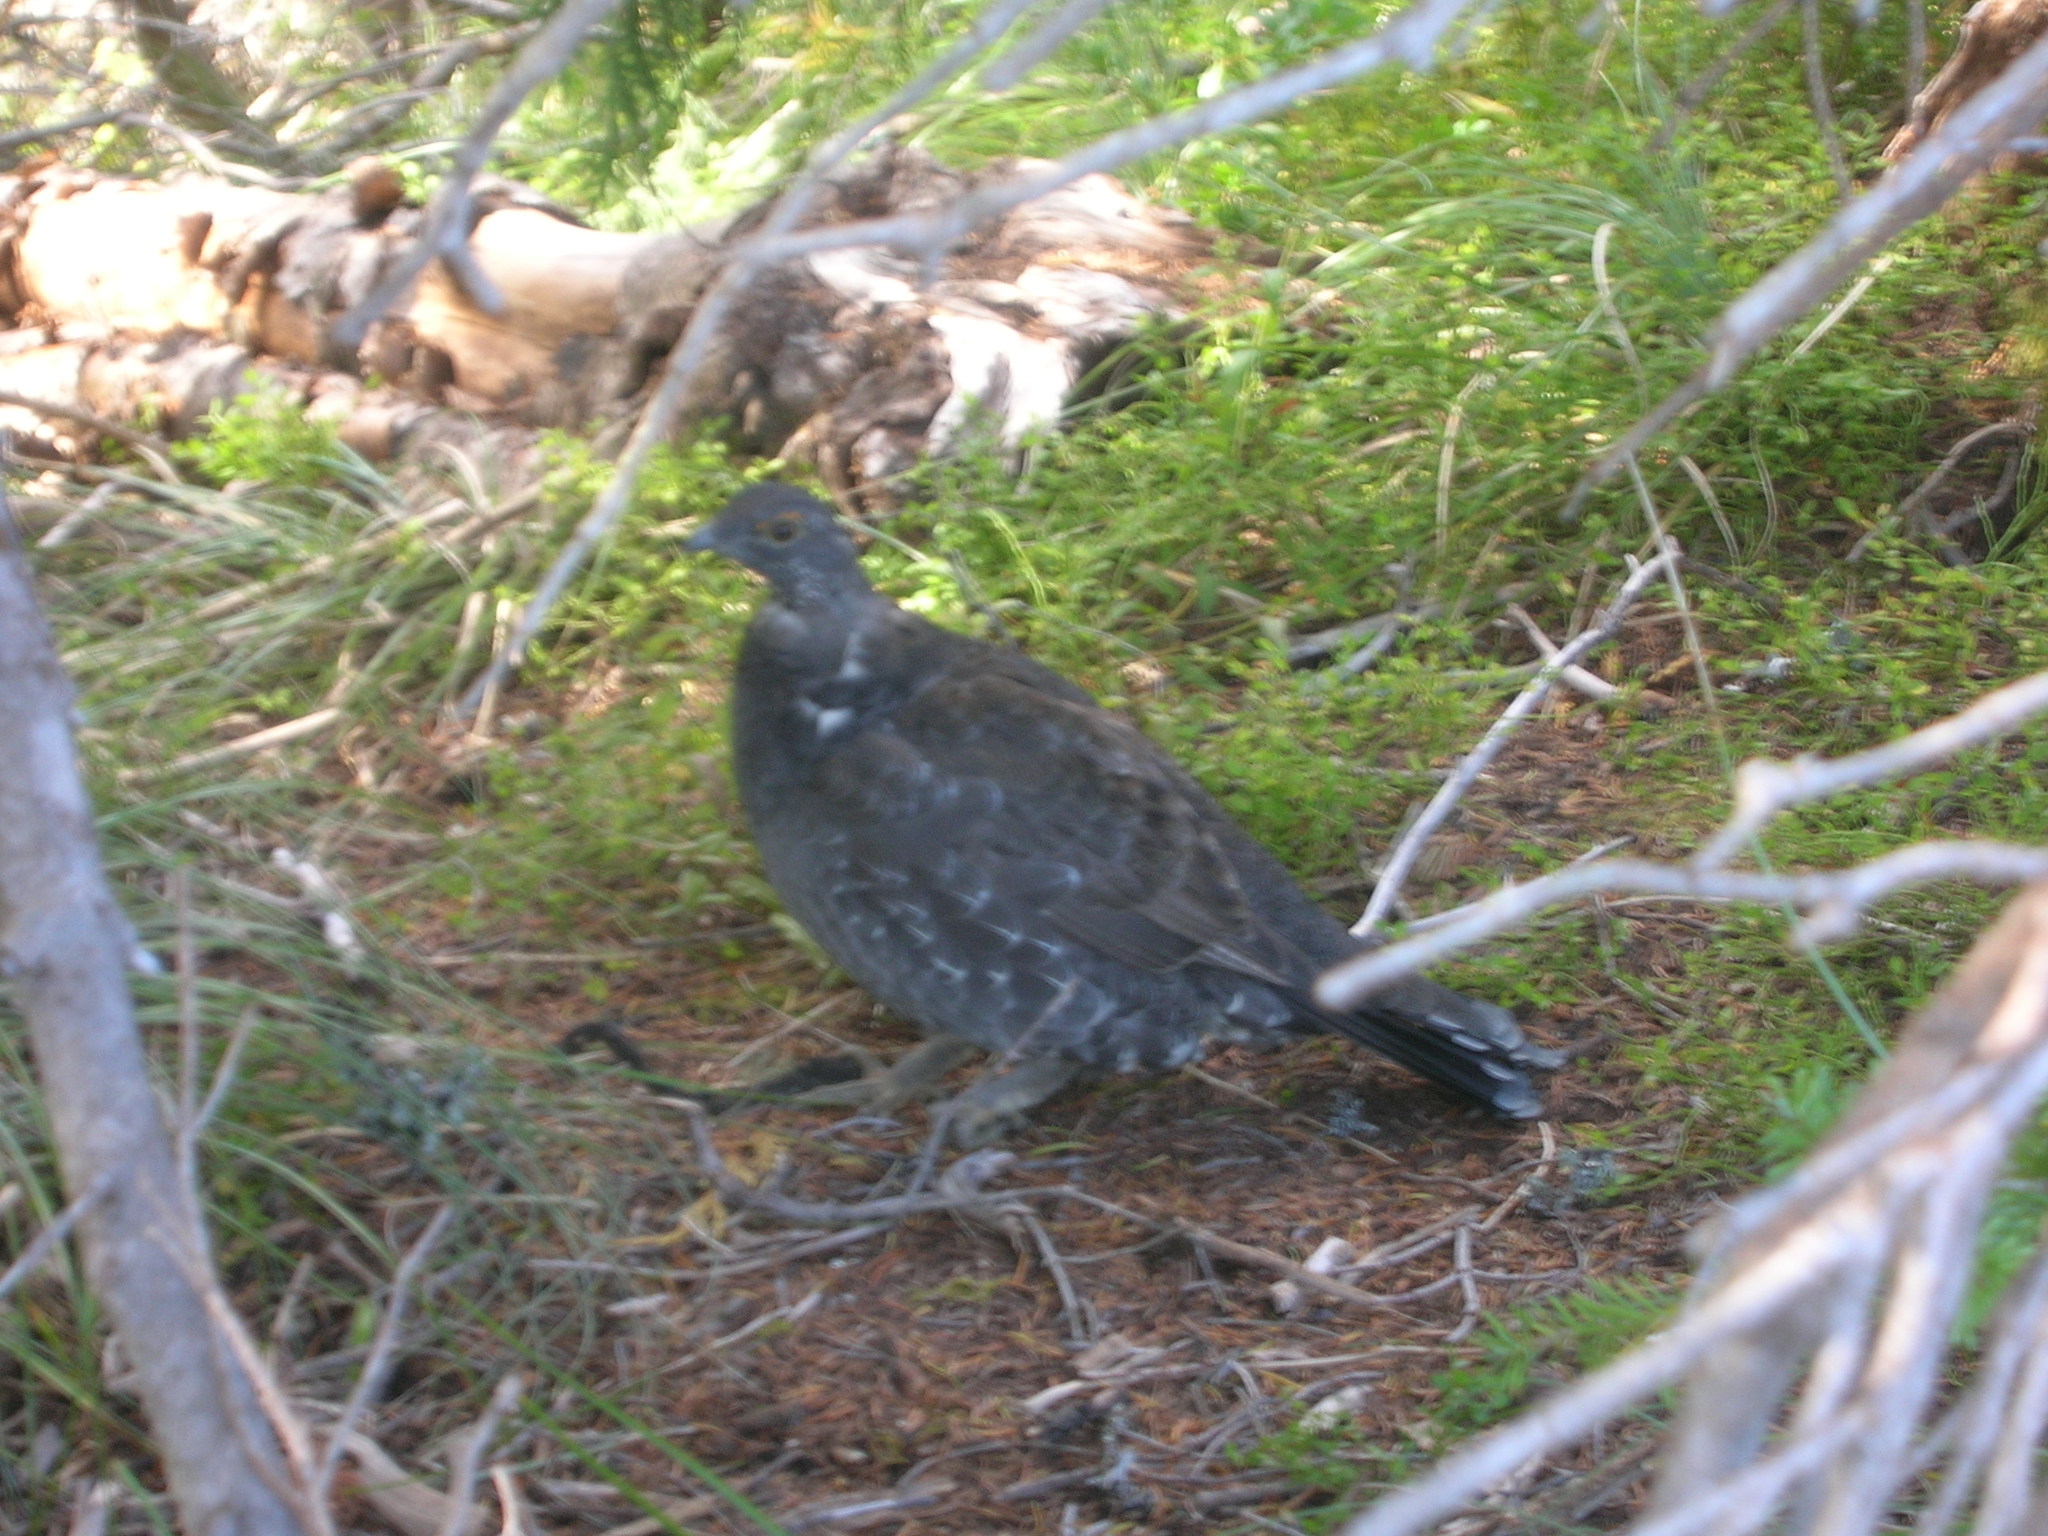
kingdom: Animalia
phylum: Chordata
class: Aves
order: Galliformes
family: Phasianidae
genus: Dendragapus
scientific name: Dendragapus fuliginosus
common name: Sooty grouse
